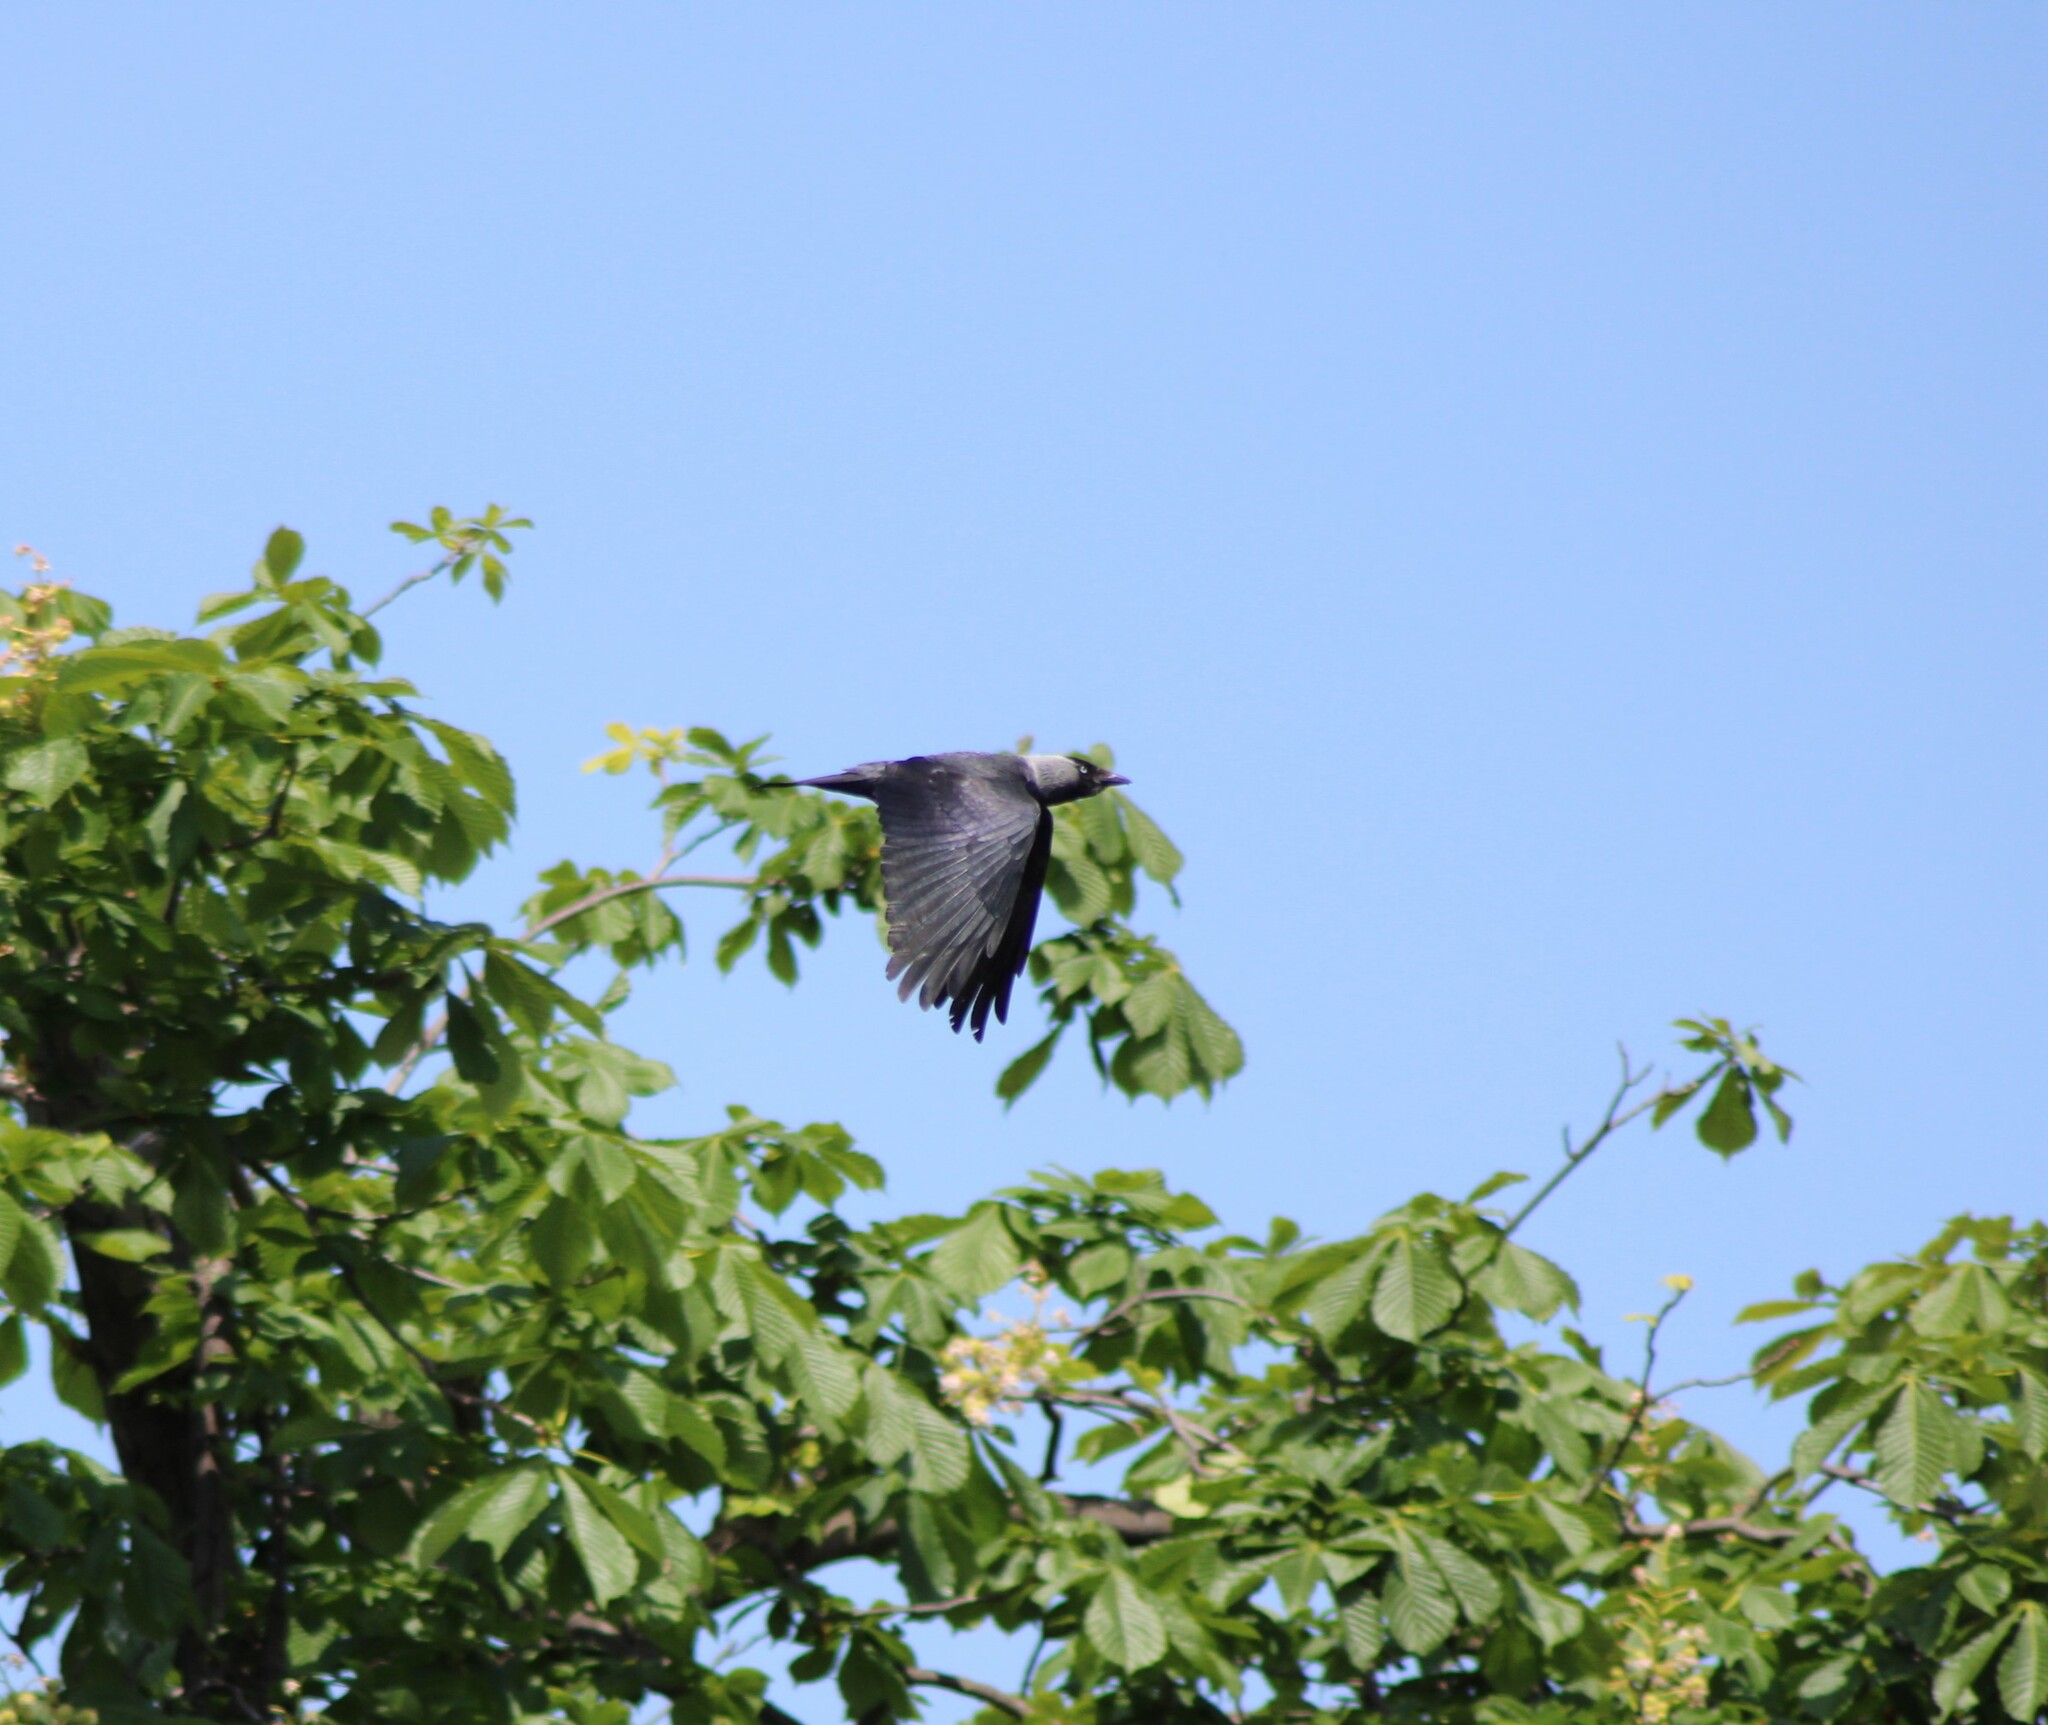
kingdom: Animalia
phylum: Chordata
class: Aves
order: Passeriformes
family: Corvidae
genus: Coloeus
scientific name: Coloeus monedula
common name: Western jackdaw
